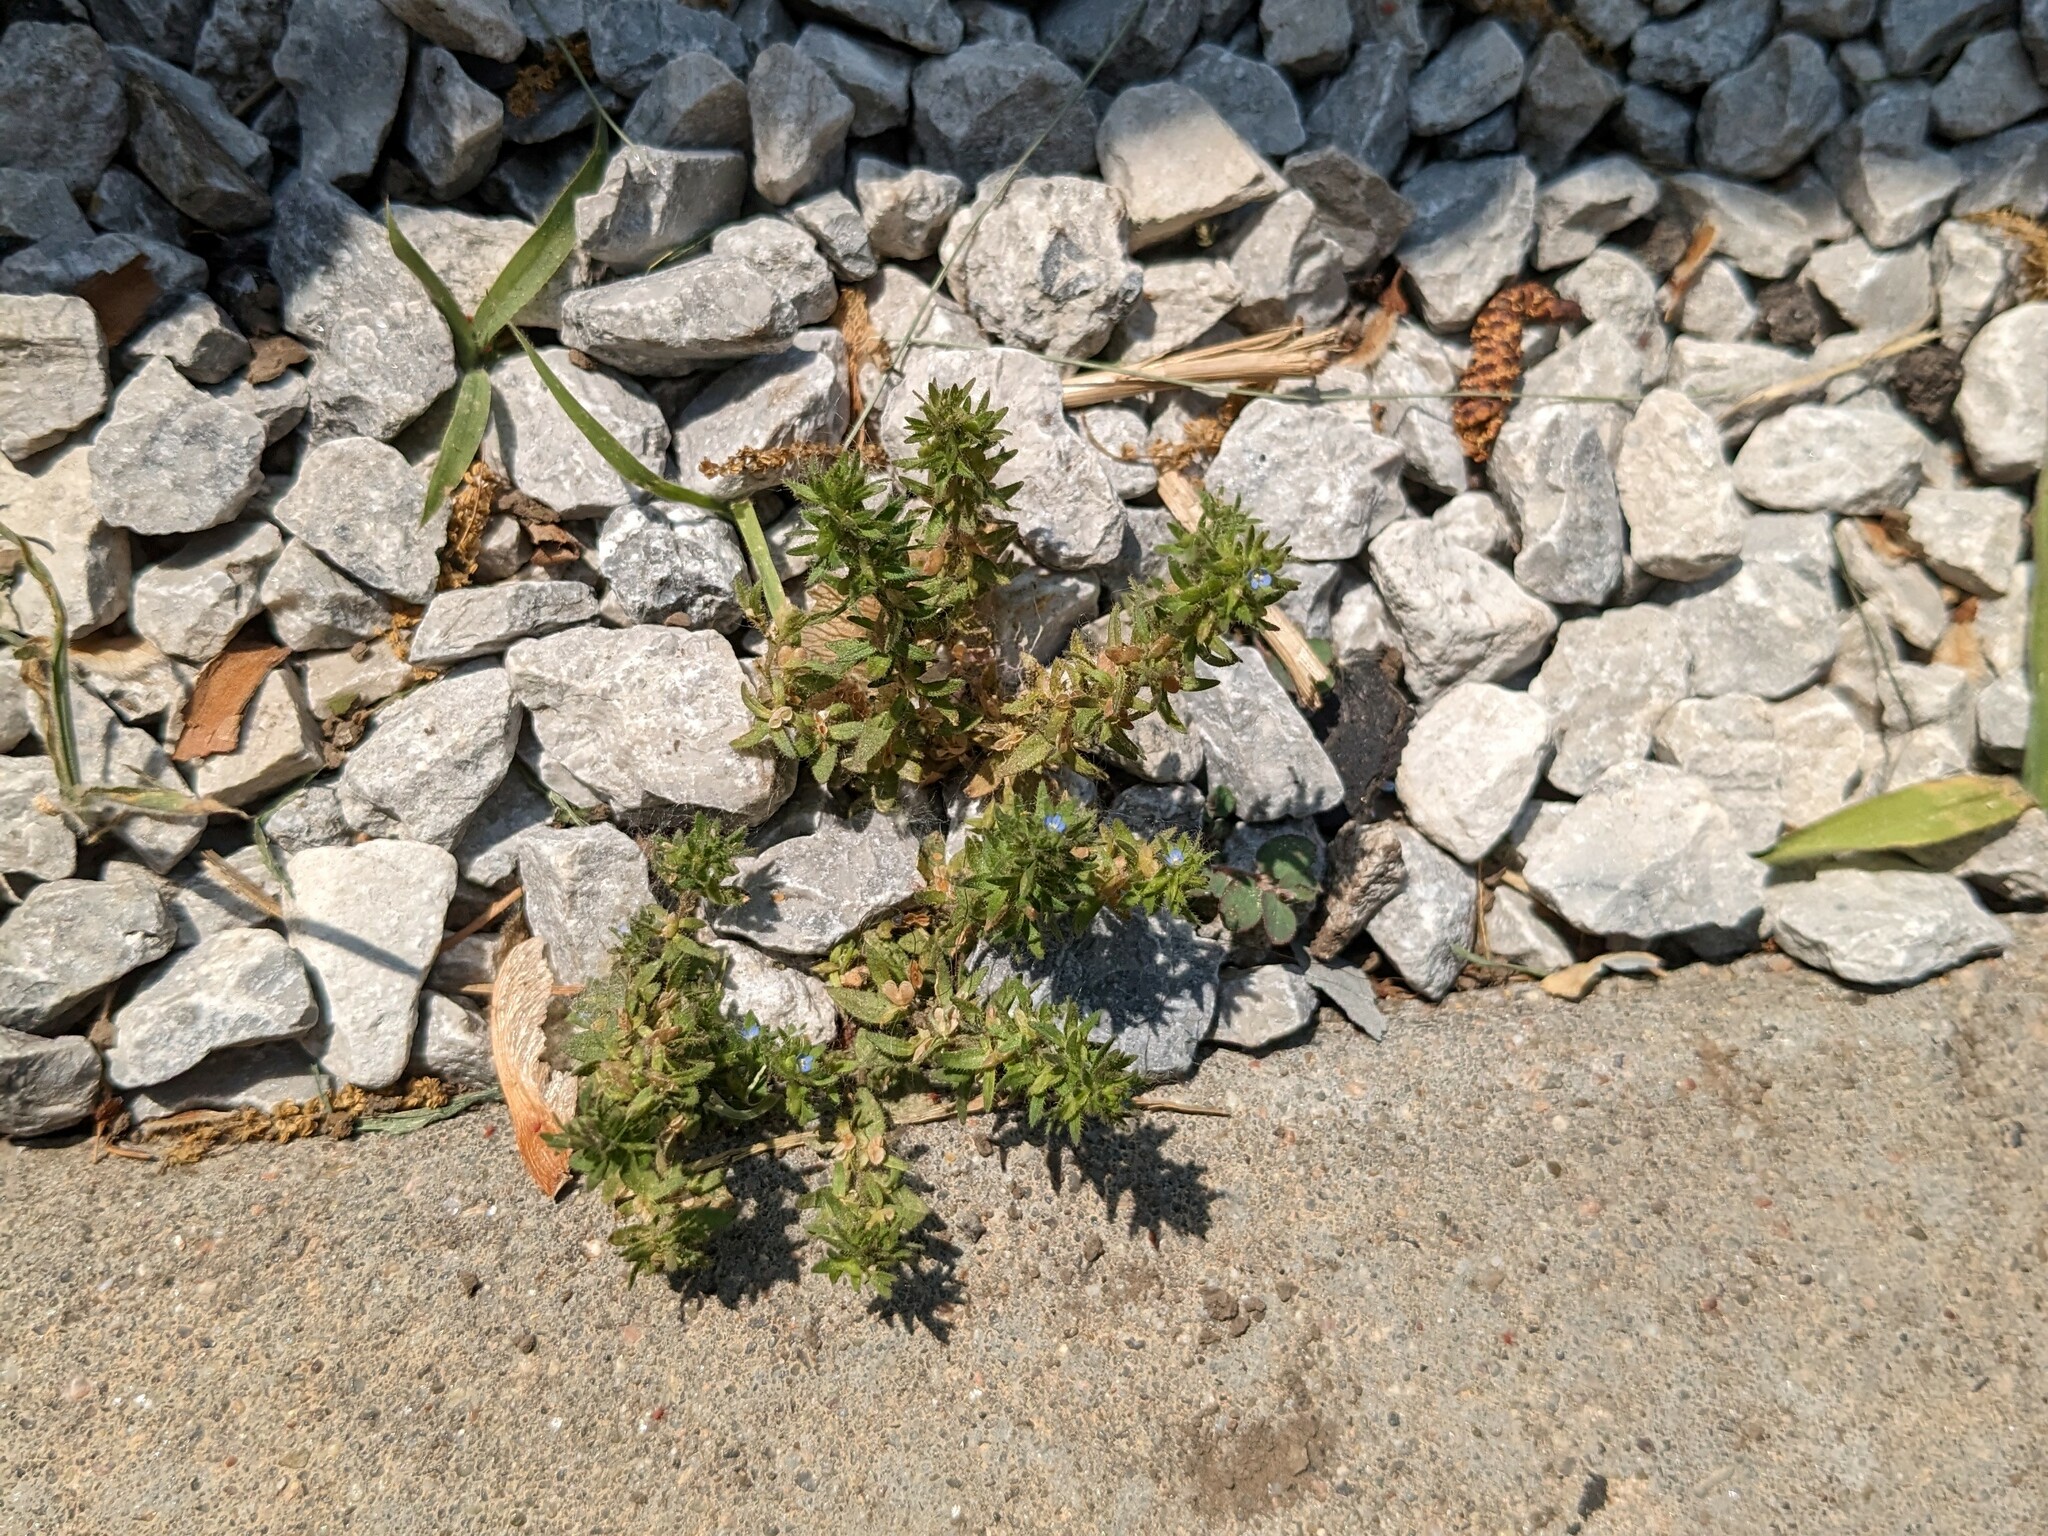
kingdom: Plantae
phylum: Tracheophyta
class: Magnoliopsida
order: Lamiales
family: Plantaginaceae
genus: Veronica
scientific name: Veronica arvensis
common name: Corn speedwell
